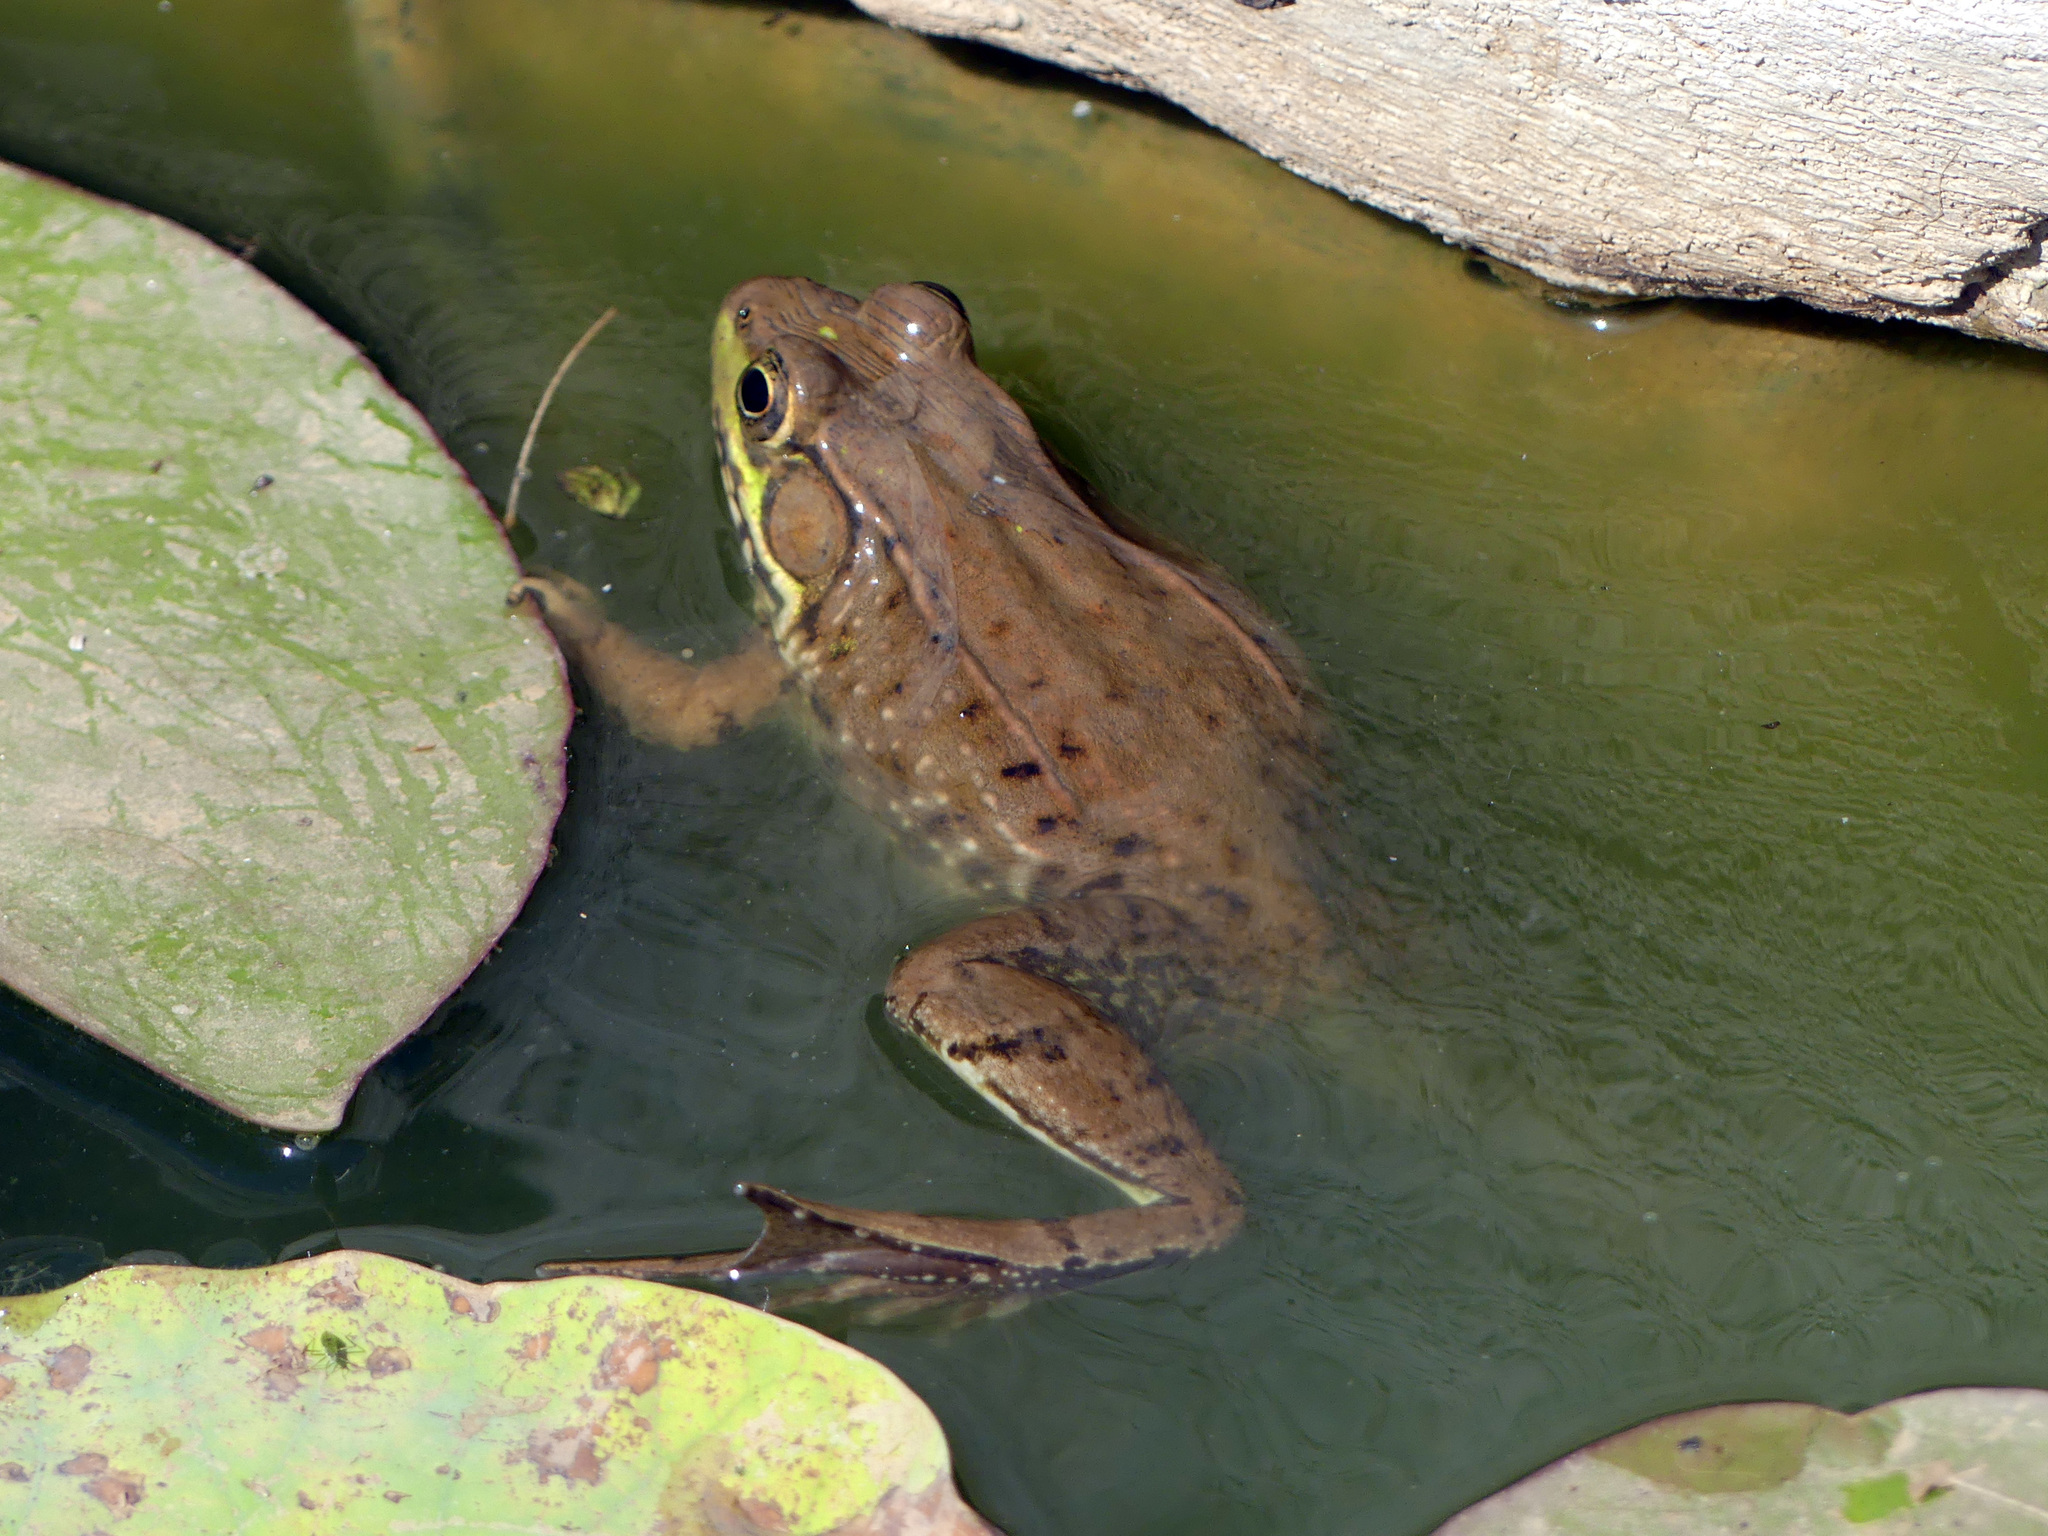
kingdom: Animalia
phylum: Chordata
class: Amphibia
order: Anura
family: Ranidae
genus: Lithobates
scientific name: Lithobates clamitans
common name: Green frog
